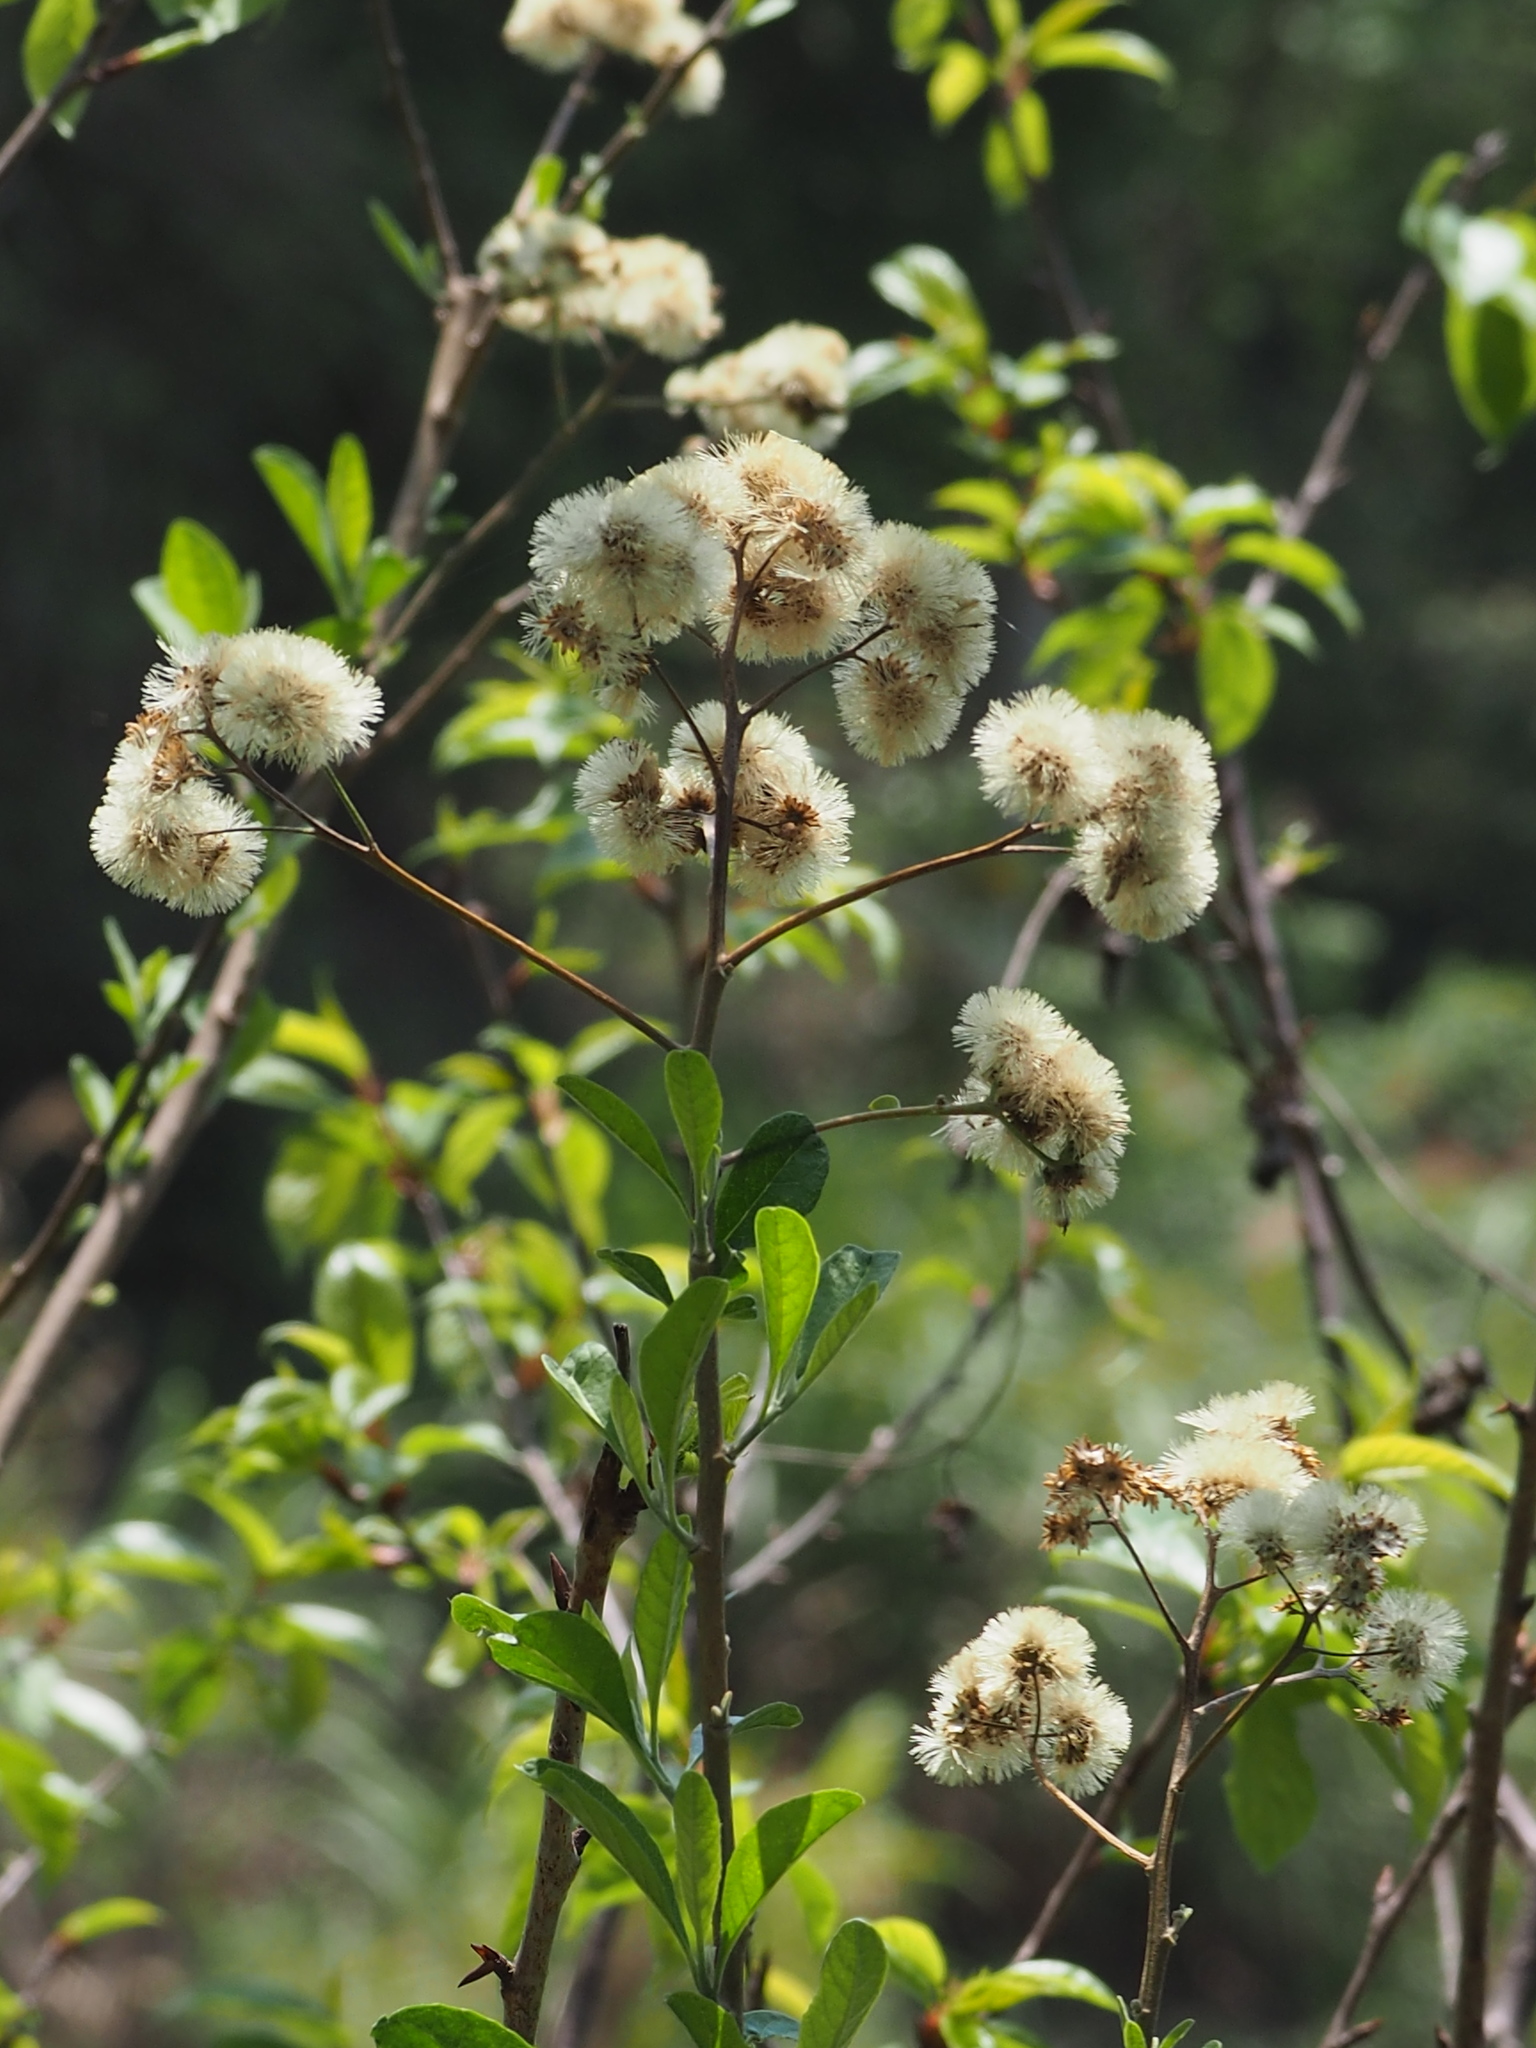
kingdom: Plantae
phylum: Tracheophyta
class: Magnoliopsida
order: Asterales
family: Asteraceae
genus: Gymnanthemum
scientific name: Gymnanthemum amygdalinum
